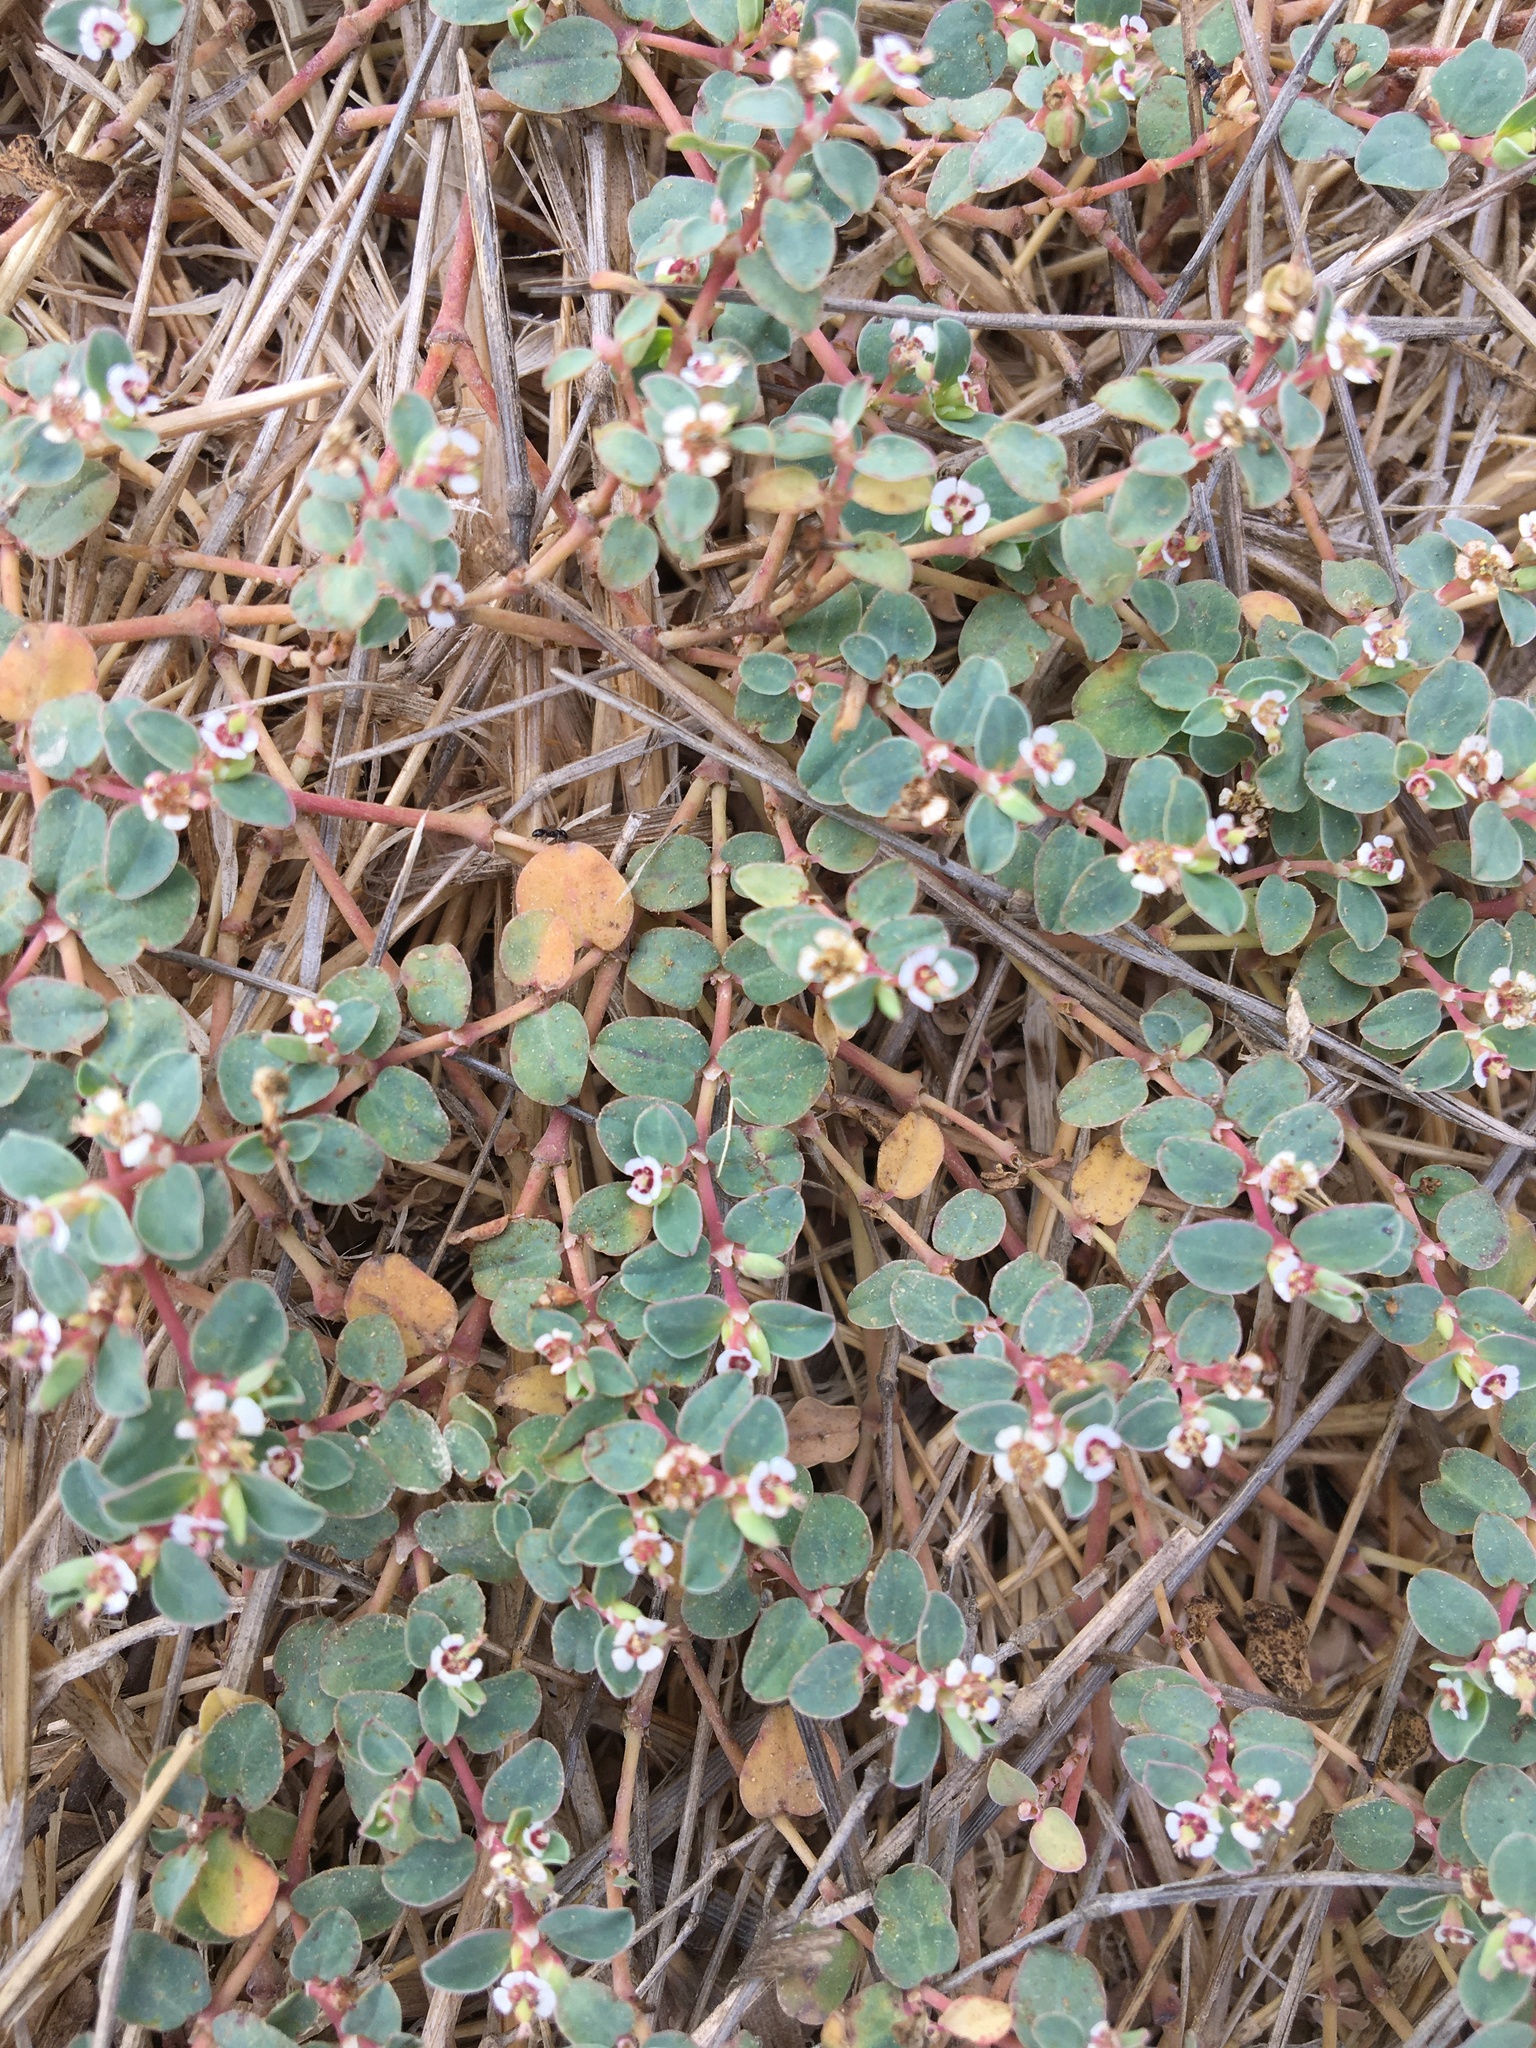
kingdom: Plantae
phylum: Tracheophyta
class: Magnoliopsida
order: Malpighiales
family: Euphorbiaceae
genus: Euphorbia
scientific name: Euphorbia albomarginata
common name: Whitemargin sandmat
